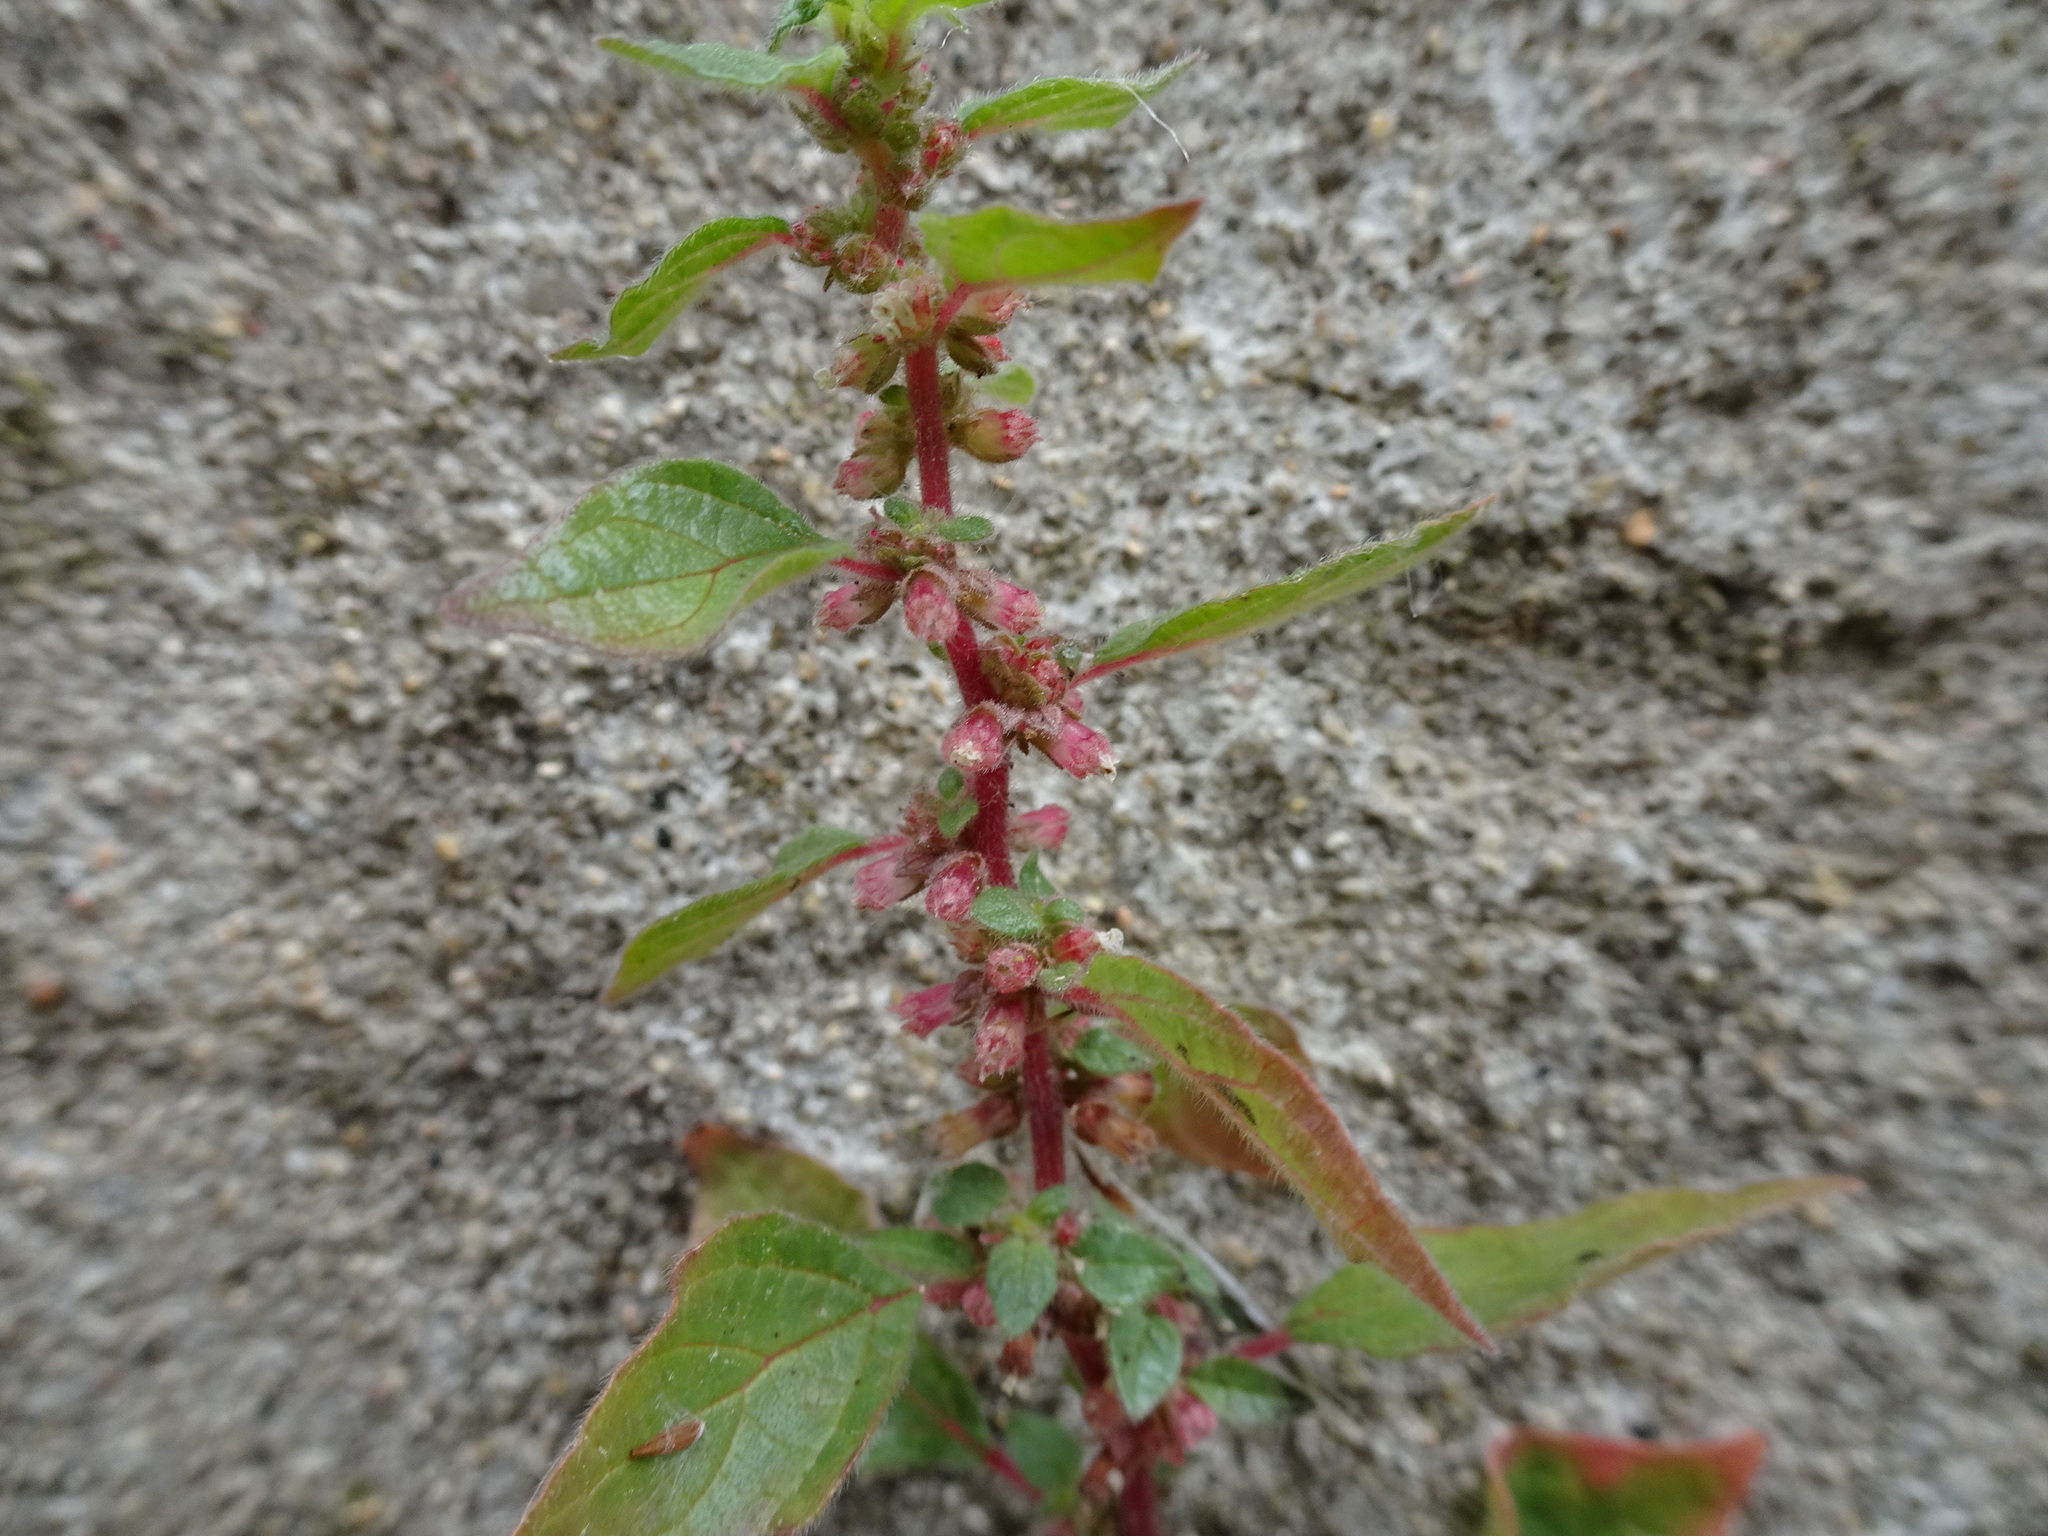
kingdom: Plantae
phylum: Tracheophyta
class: Magnoliopsida
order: Rosales
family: Urticaceae
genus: Parietaria
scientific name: Parietaria judaica
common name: Pellitory-of-the-wall
